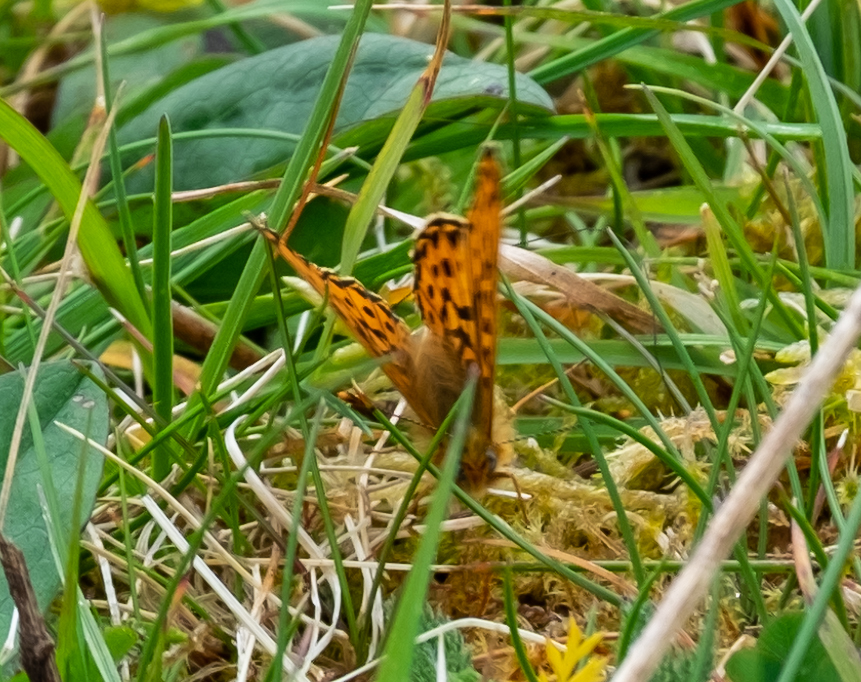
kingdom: Animalia
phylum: Arthropoda
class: Insecta
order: Lepidoptera
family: Nymphalidae
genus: Clossiana
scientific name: Clossiana euphrosyne
